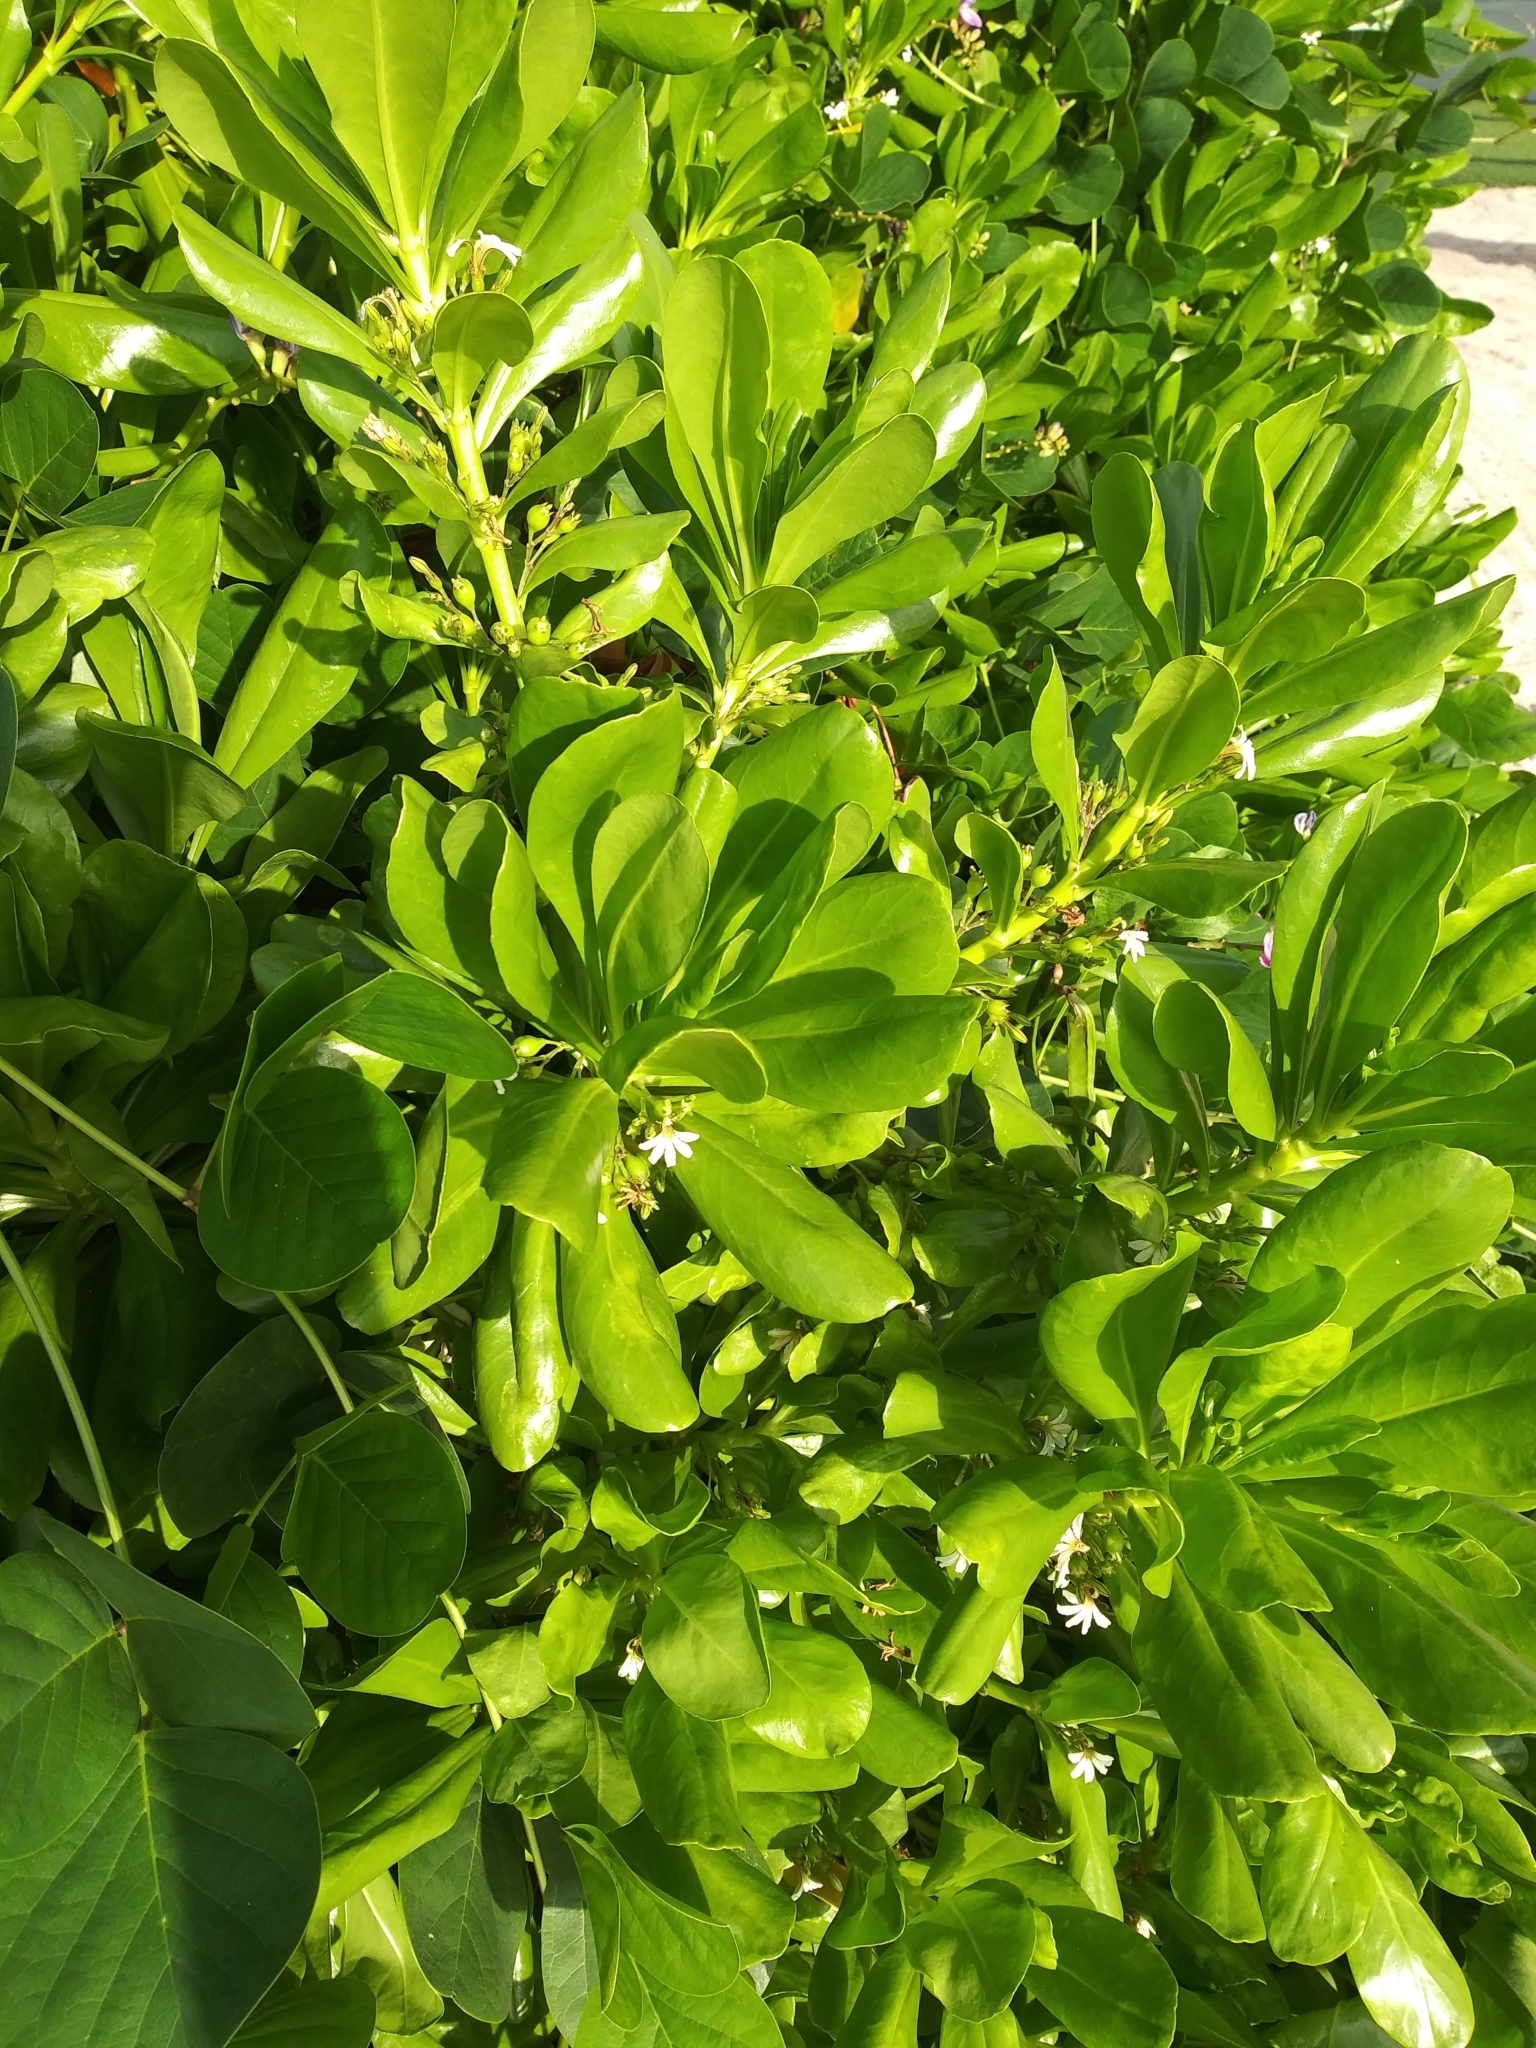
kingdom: Plantae
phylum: Tracheophyta
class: Magnoliopsida
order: Asterales
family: Goodeniaceae
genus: Scaevola
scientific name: Scaevola taccada
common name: Sea lettucetree
